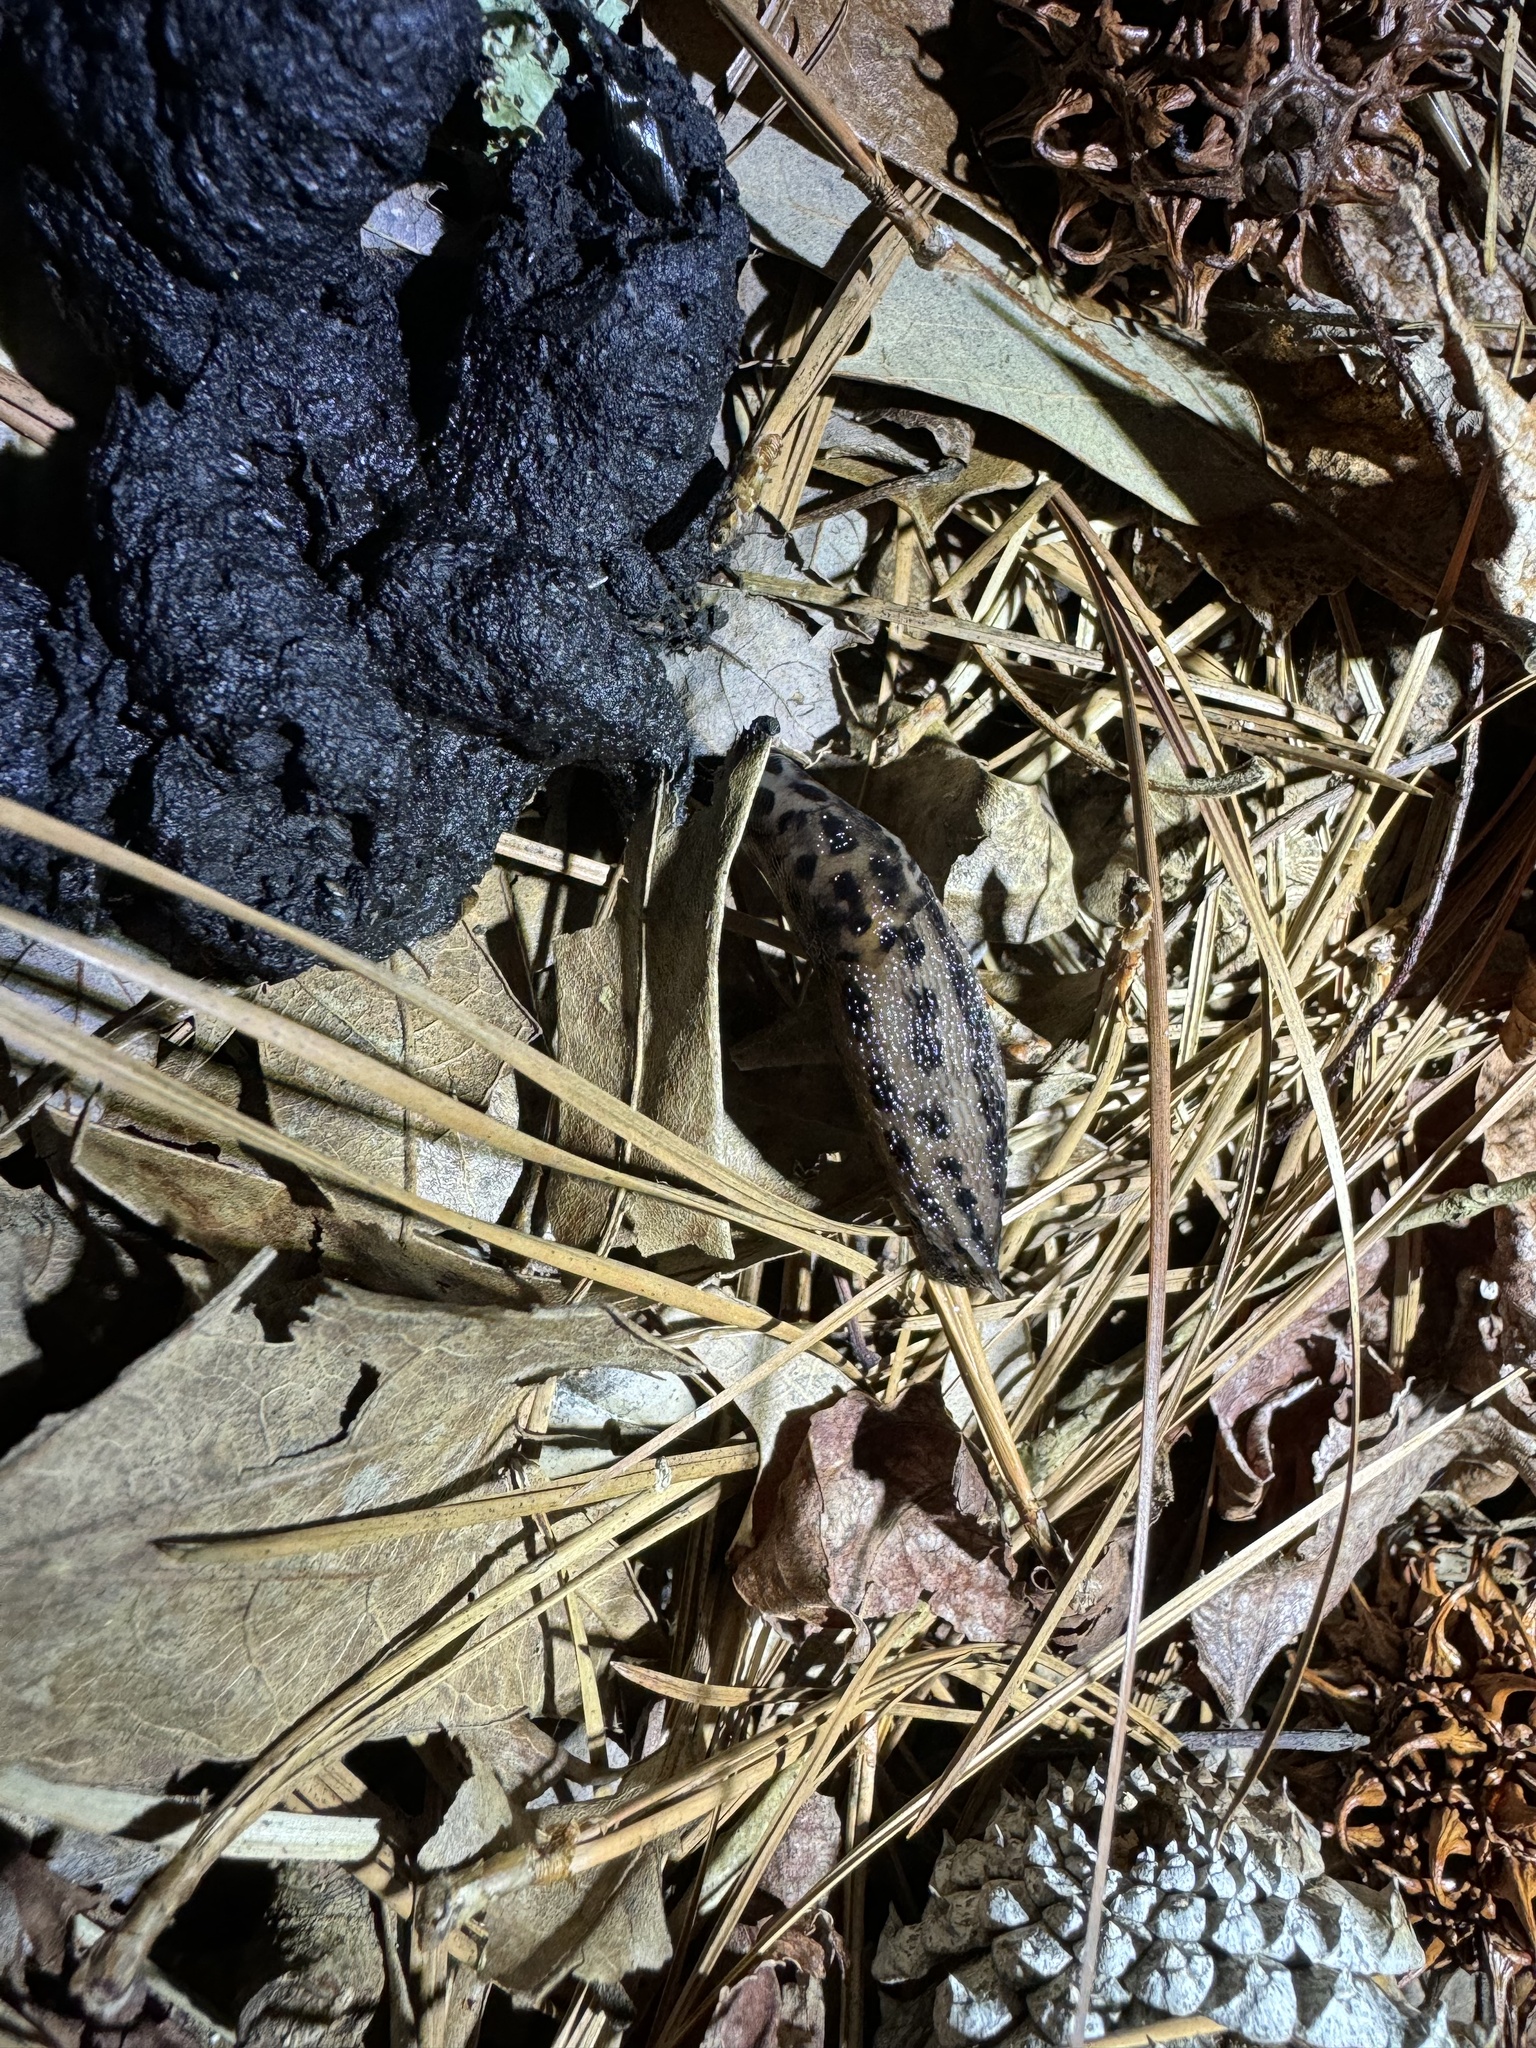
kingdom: Animalia
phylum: Mollusca
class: Gastropoda
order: Stylommatophora
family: Limacidae
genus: Limax
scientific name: Limax maximus
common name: Great grey slug
